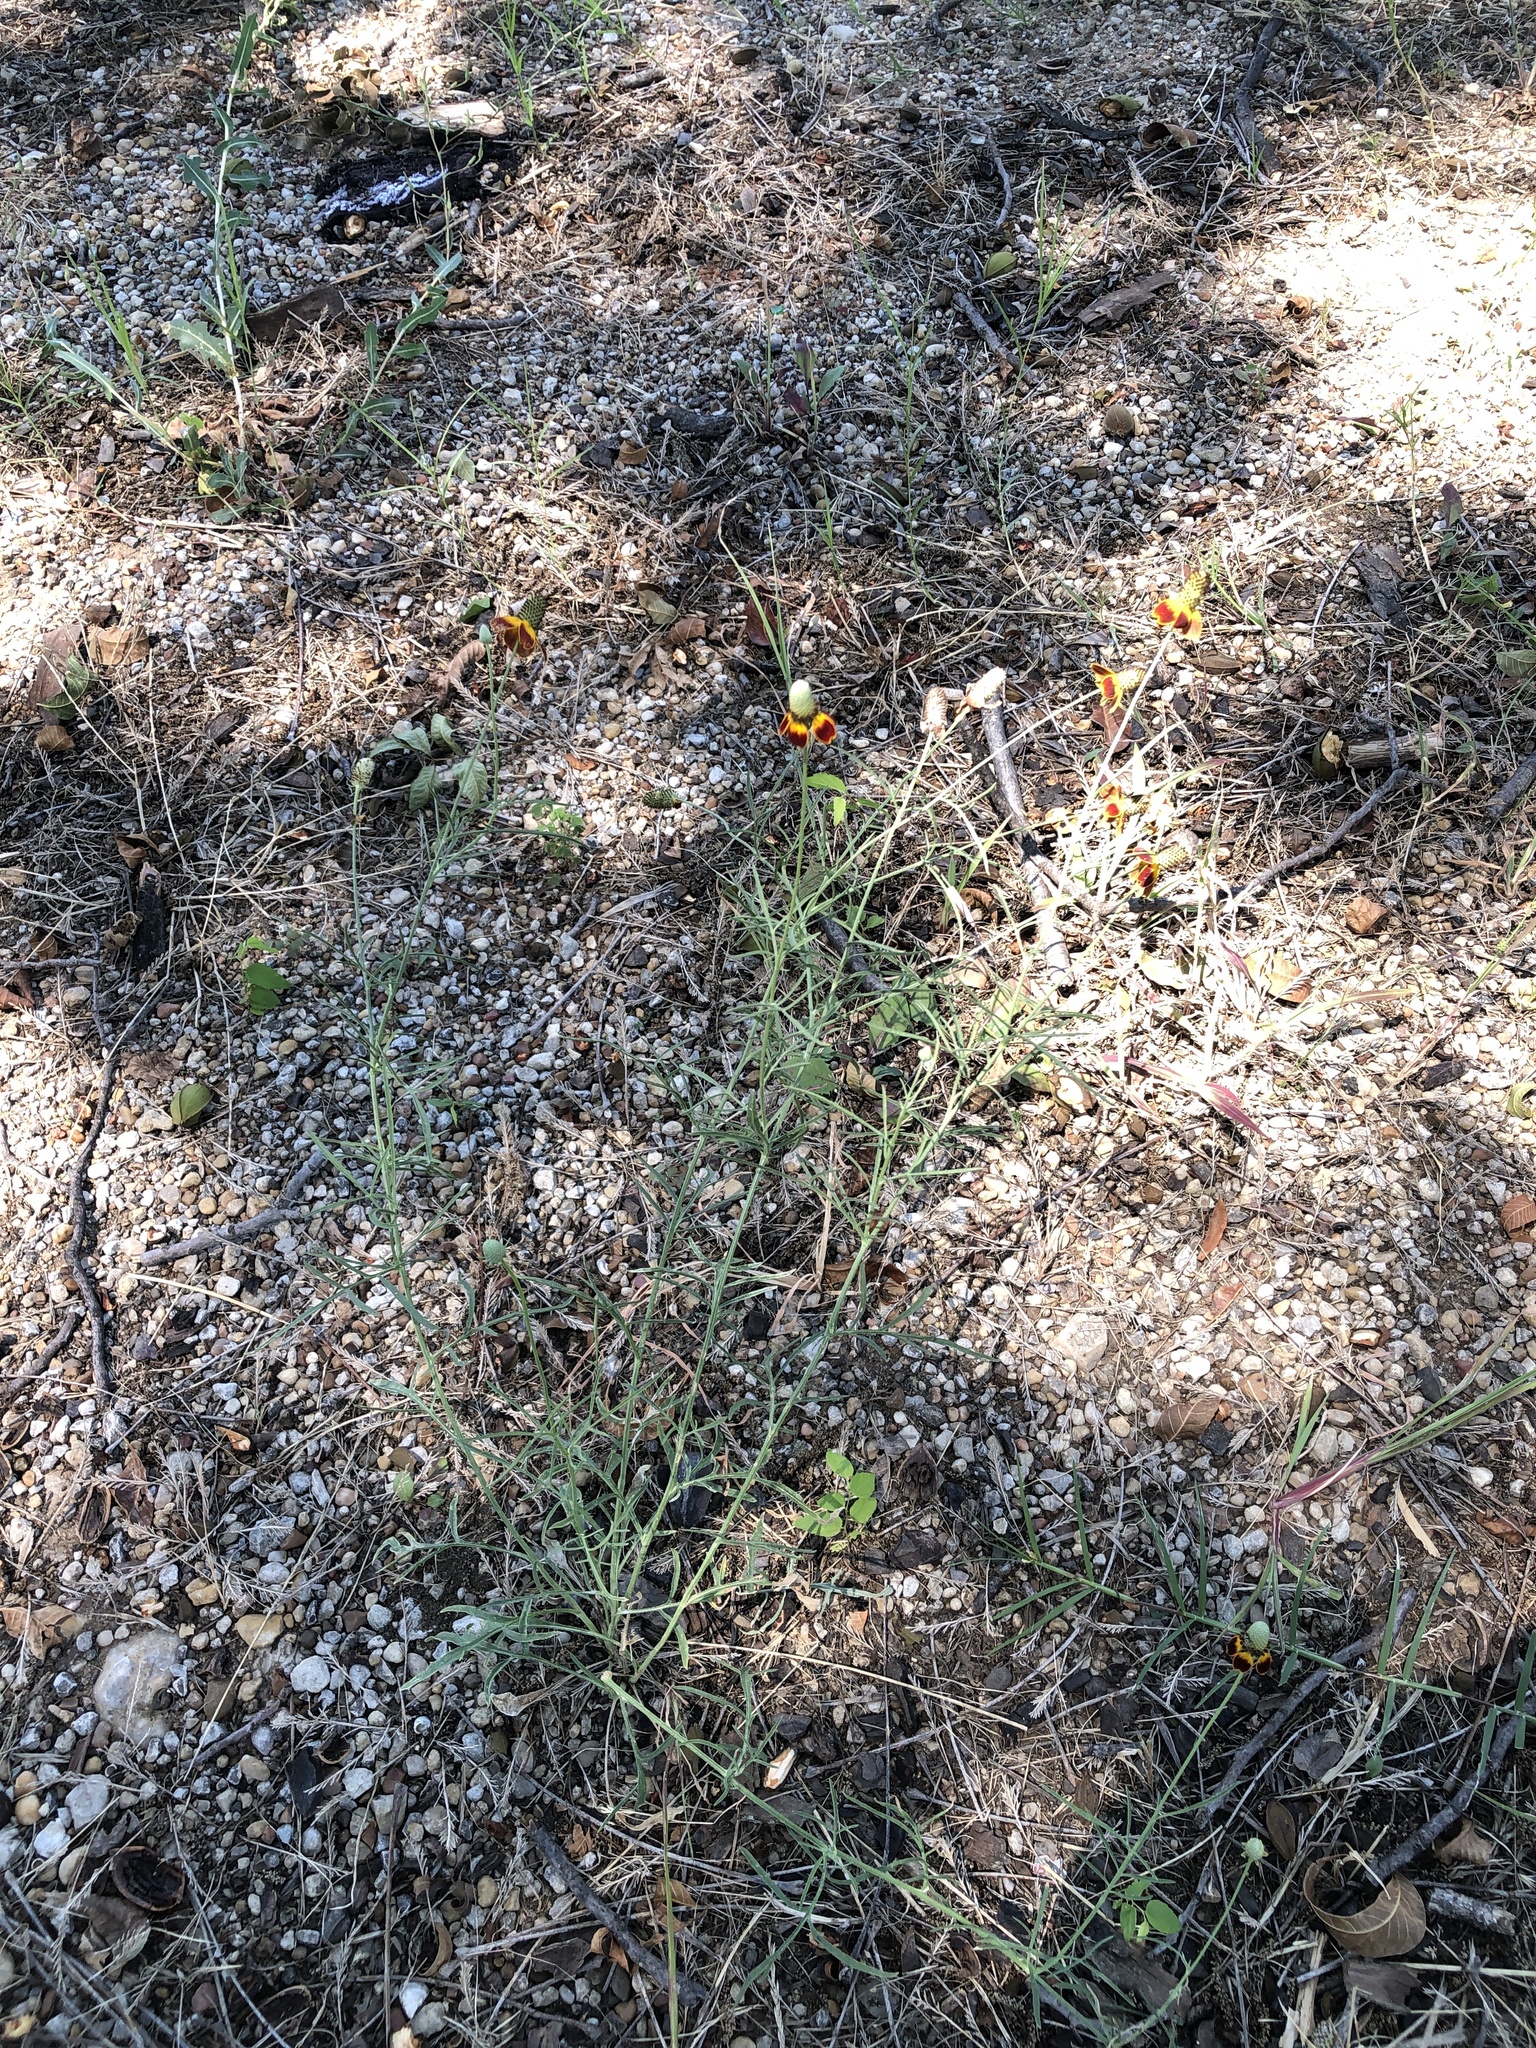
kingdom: Plantae
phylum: Tracheophyta
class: Magnoliopsida
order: Asterales
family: Asteraceae
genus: Ratibida
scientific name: Ratibida columnifera
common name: Prairie coneflower
